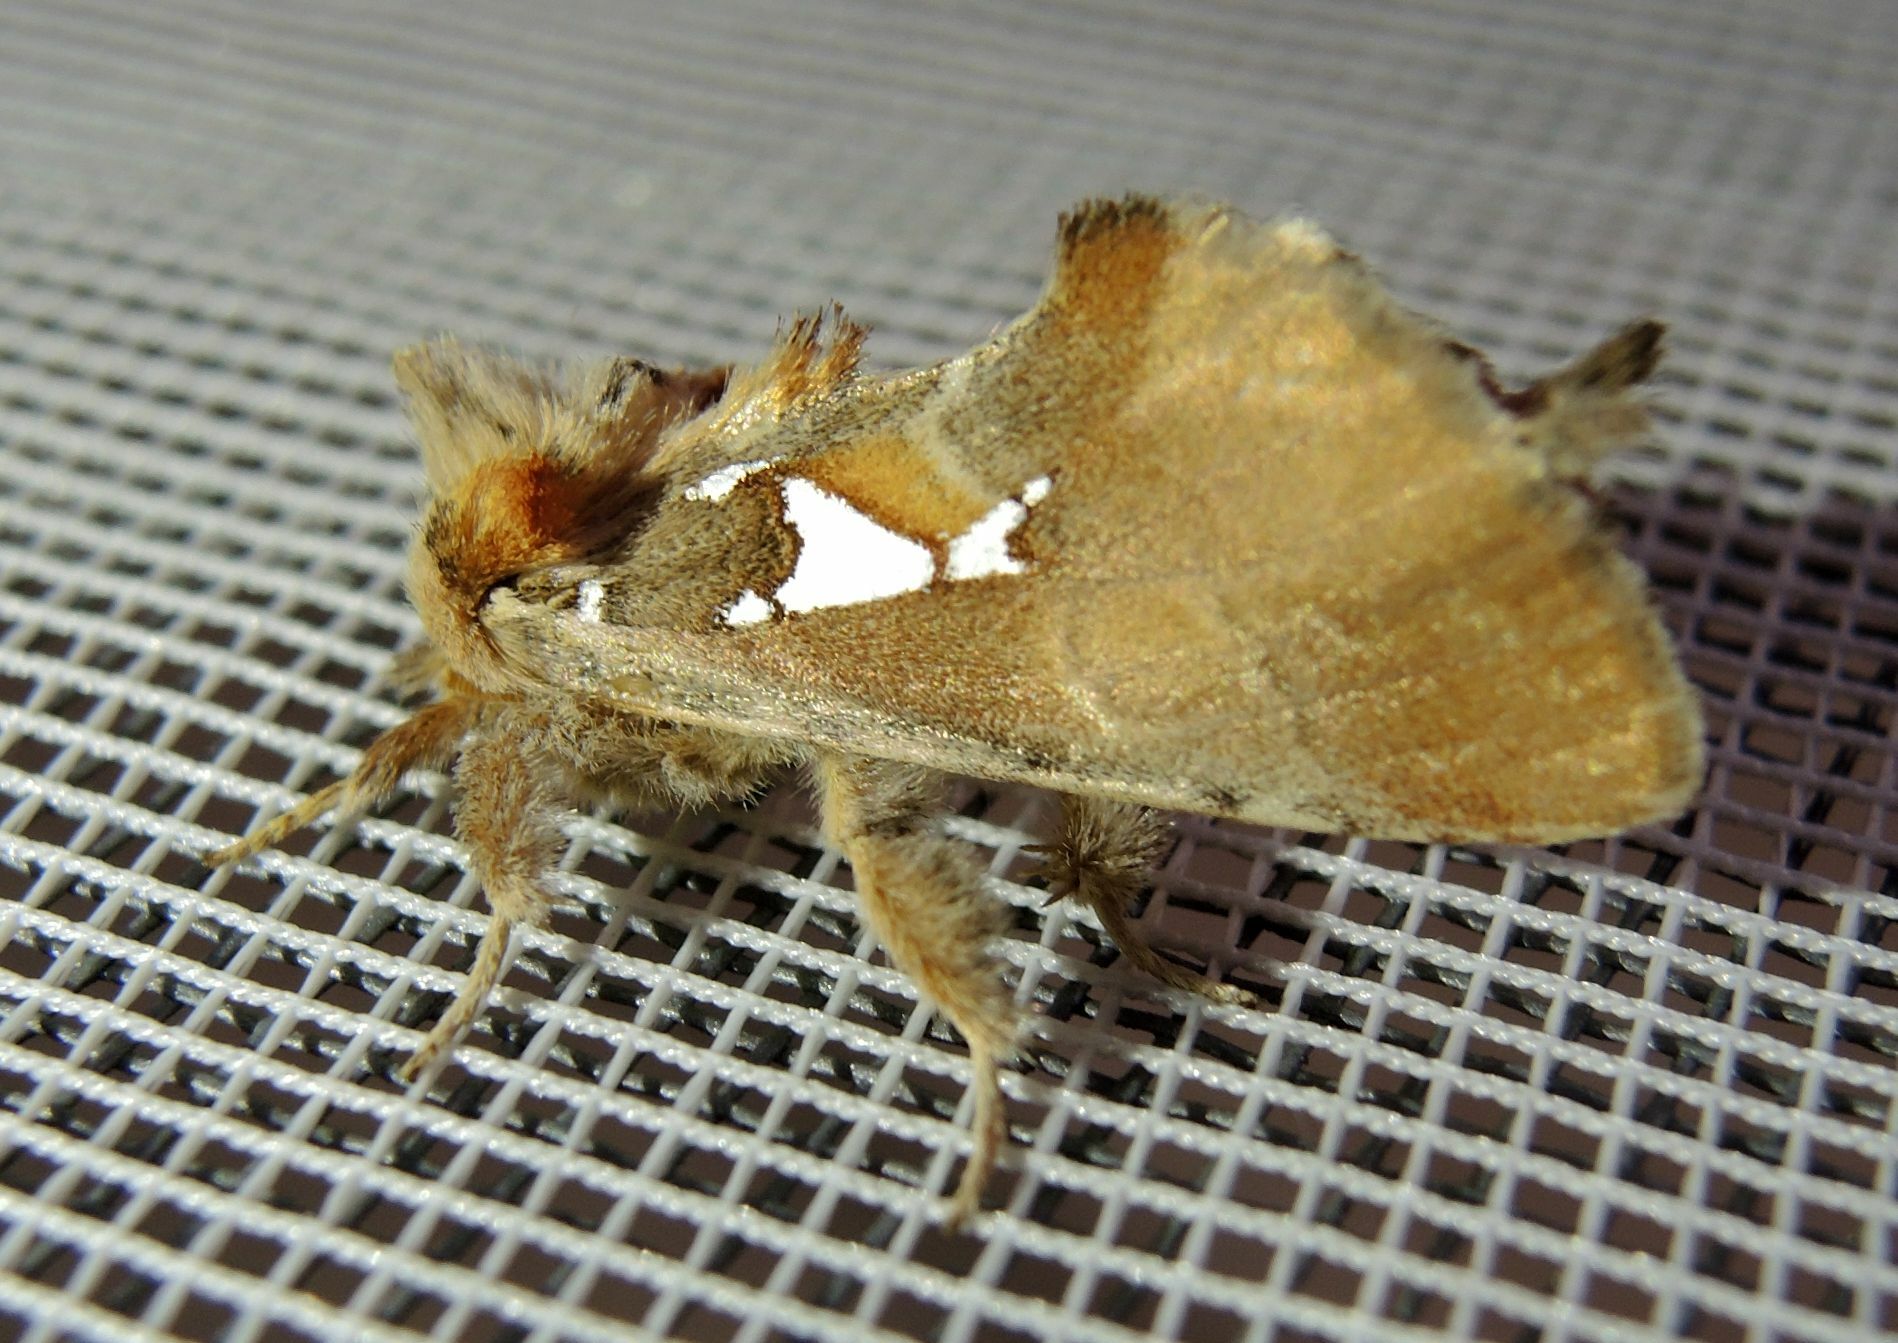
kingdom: Animalia
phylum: Arthropoda
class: Insecta
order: Lepidoptera
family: Notodontidae
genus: Spatalia
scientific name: Spatalia argentina
